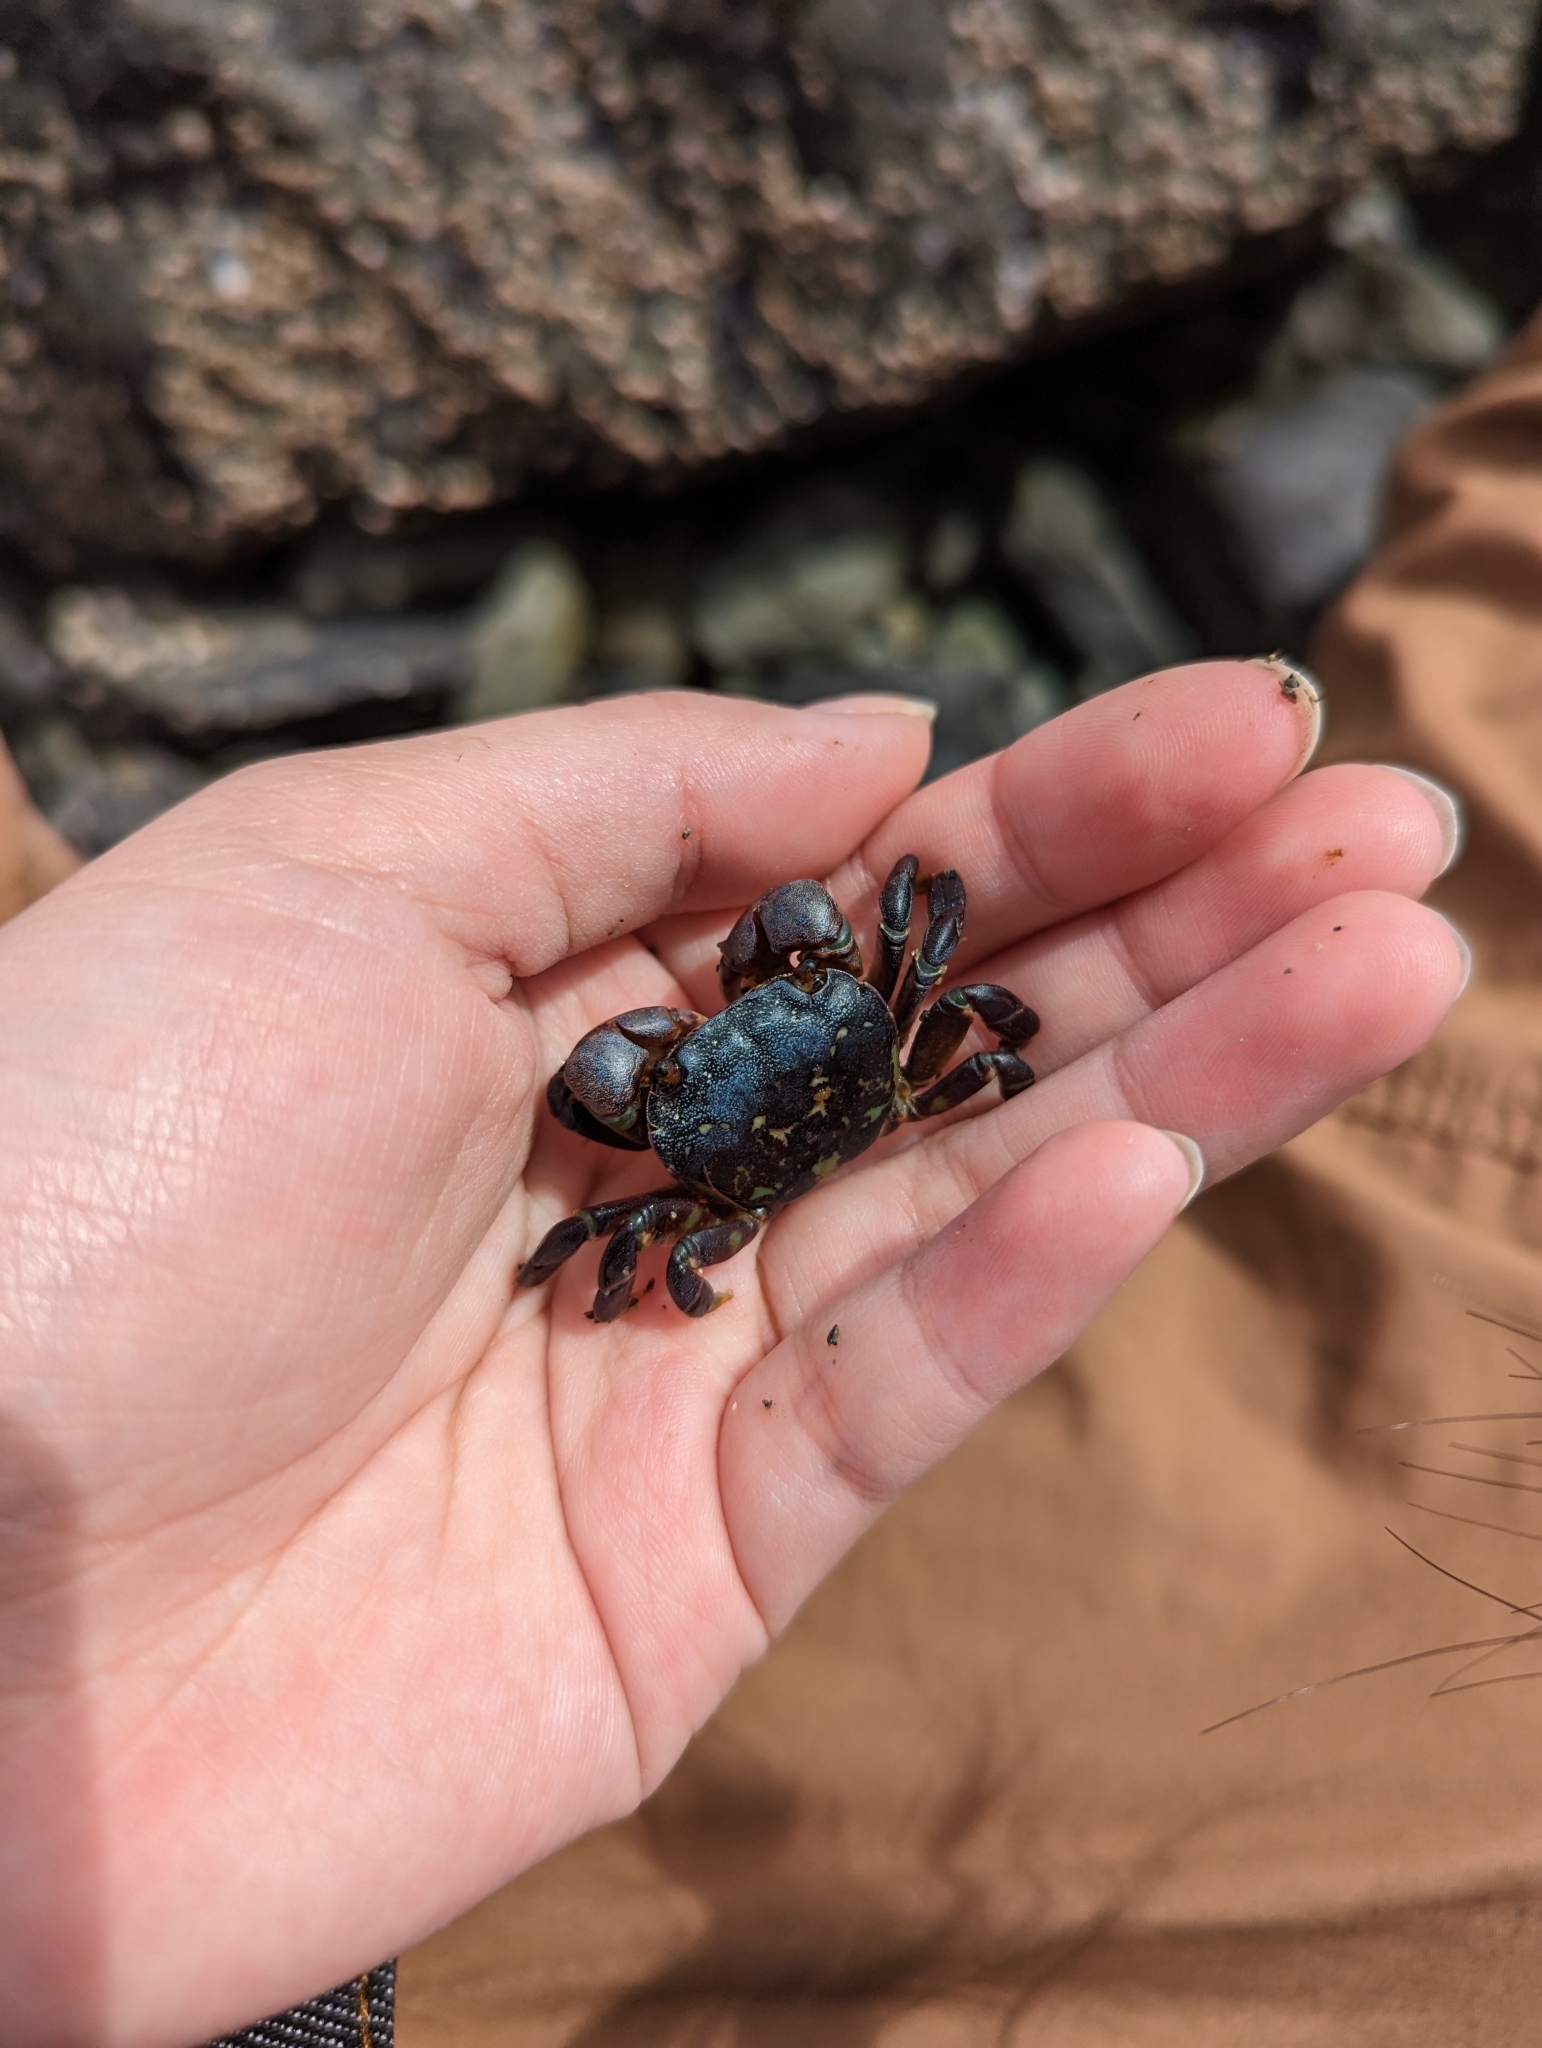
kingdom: Animalia
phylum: Arthropoda
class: Malacostraca
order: Decapoda
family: Varunidae
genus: Hemigrapsus
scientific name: Hemigrapsus nudus
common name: Purple shore crab
